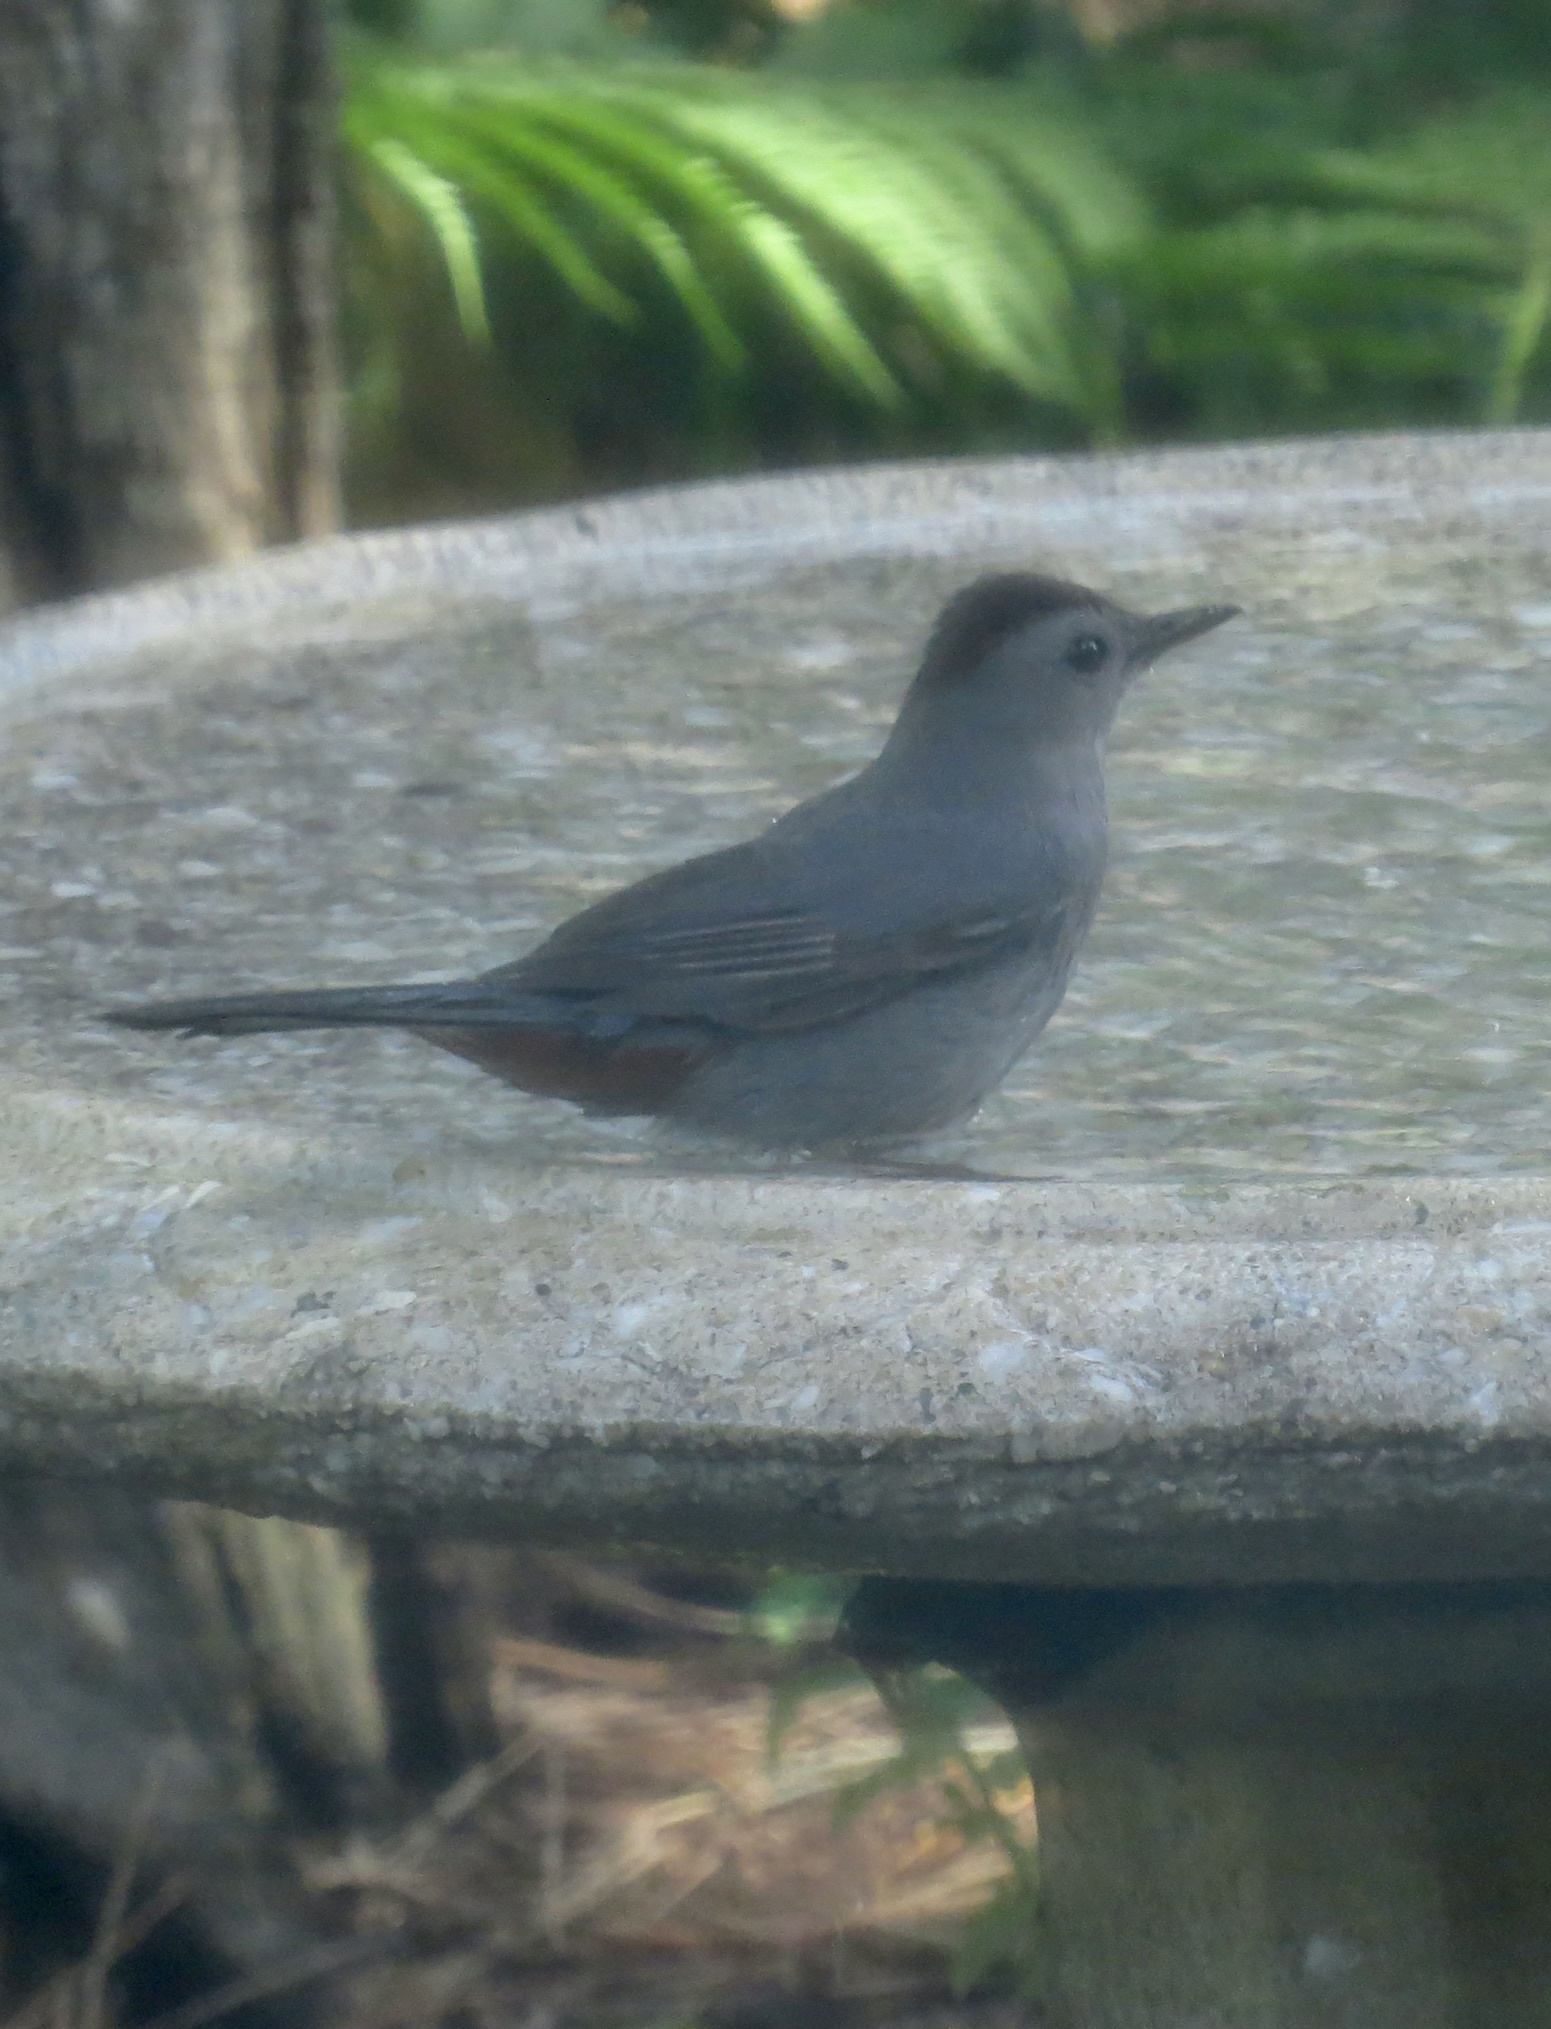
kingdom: Animalia
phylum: Chordata
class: Aves
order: Passeriformes
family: Mimidae
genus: Dumetella
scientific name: Dumetella carolinensis
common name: Gray catbird
